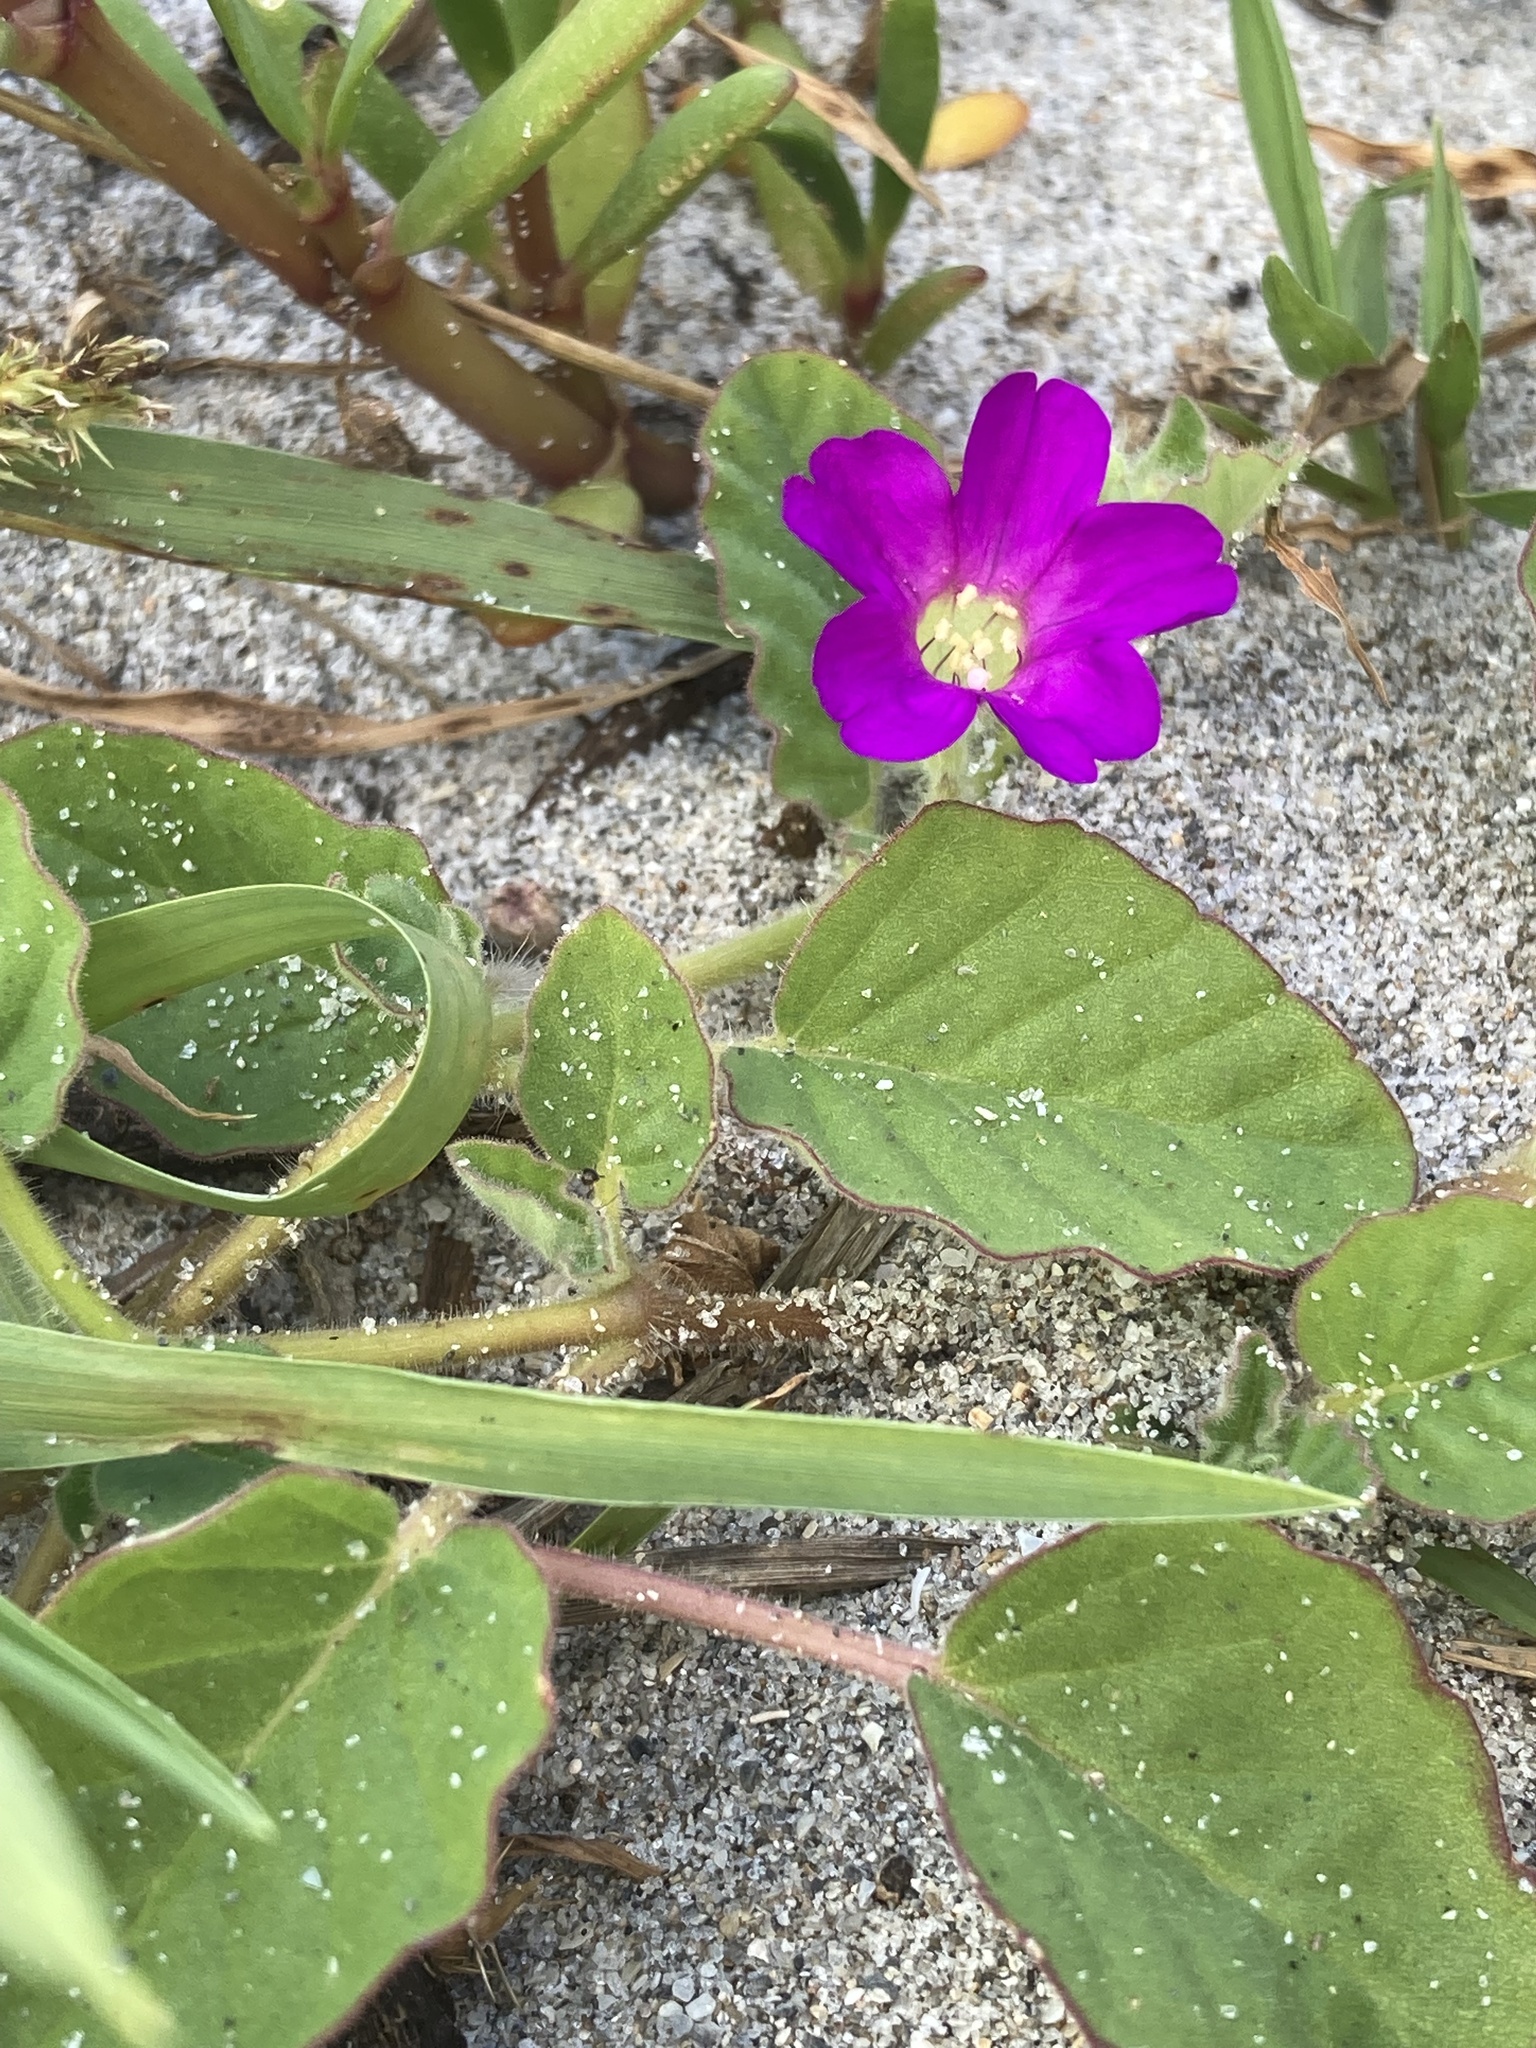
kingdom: Plantae
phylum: Tracheophyta
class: Magnoliopsida
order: Caryophyllales
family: Nyctaginaceae
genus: Okenia
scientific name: Okenia hypogaea
